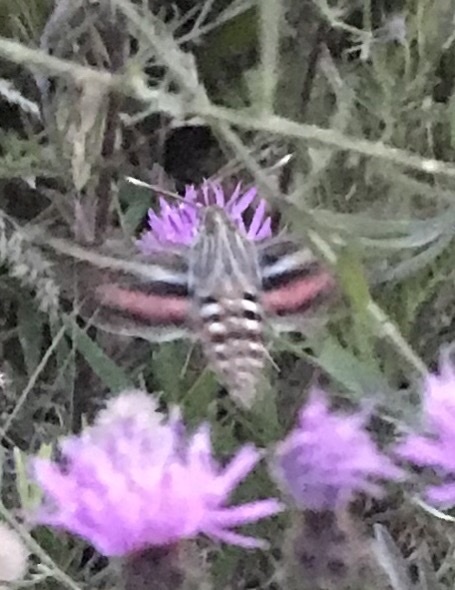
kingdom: Animalia
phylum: Arthropoda
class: Insecta
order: Lepidoptera
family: Sphingidae
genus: Hyles
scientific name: Hyles lineata
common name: White-lined sphinx
